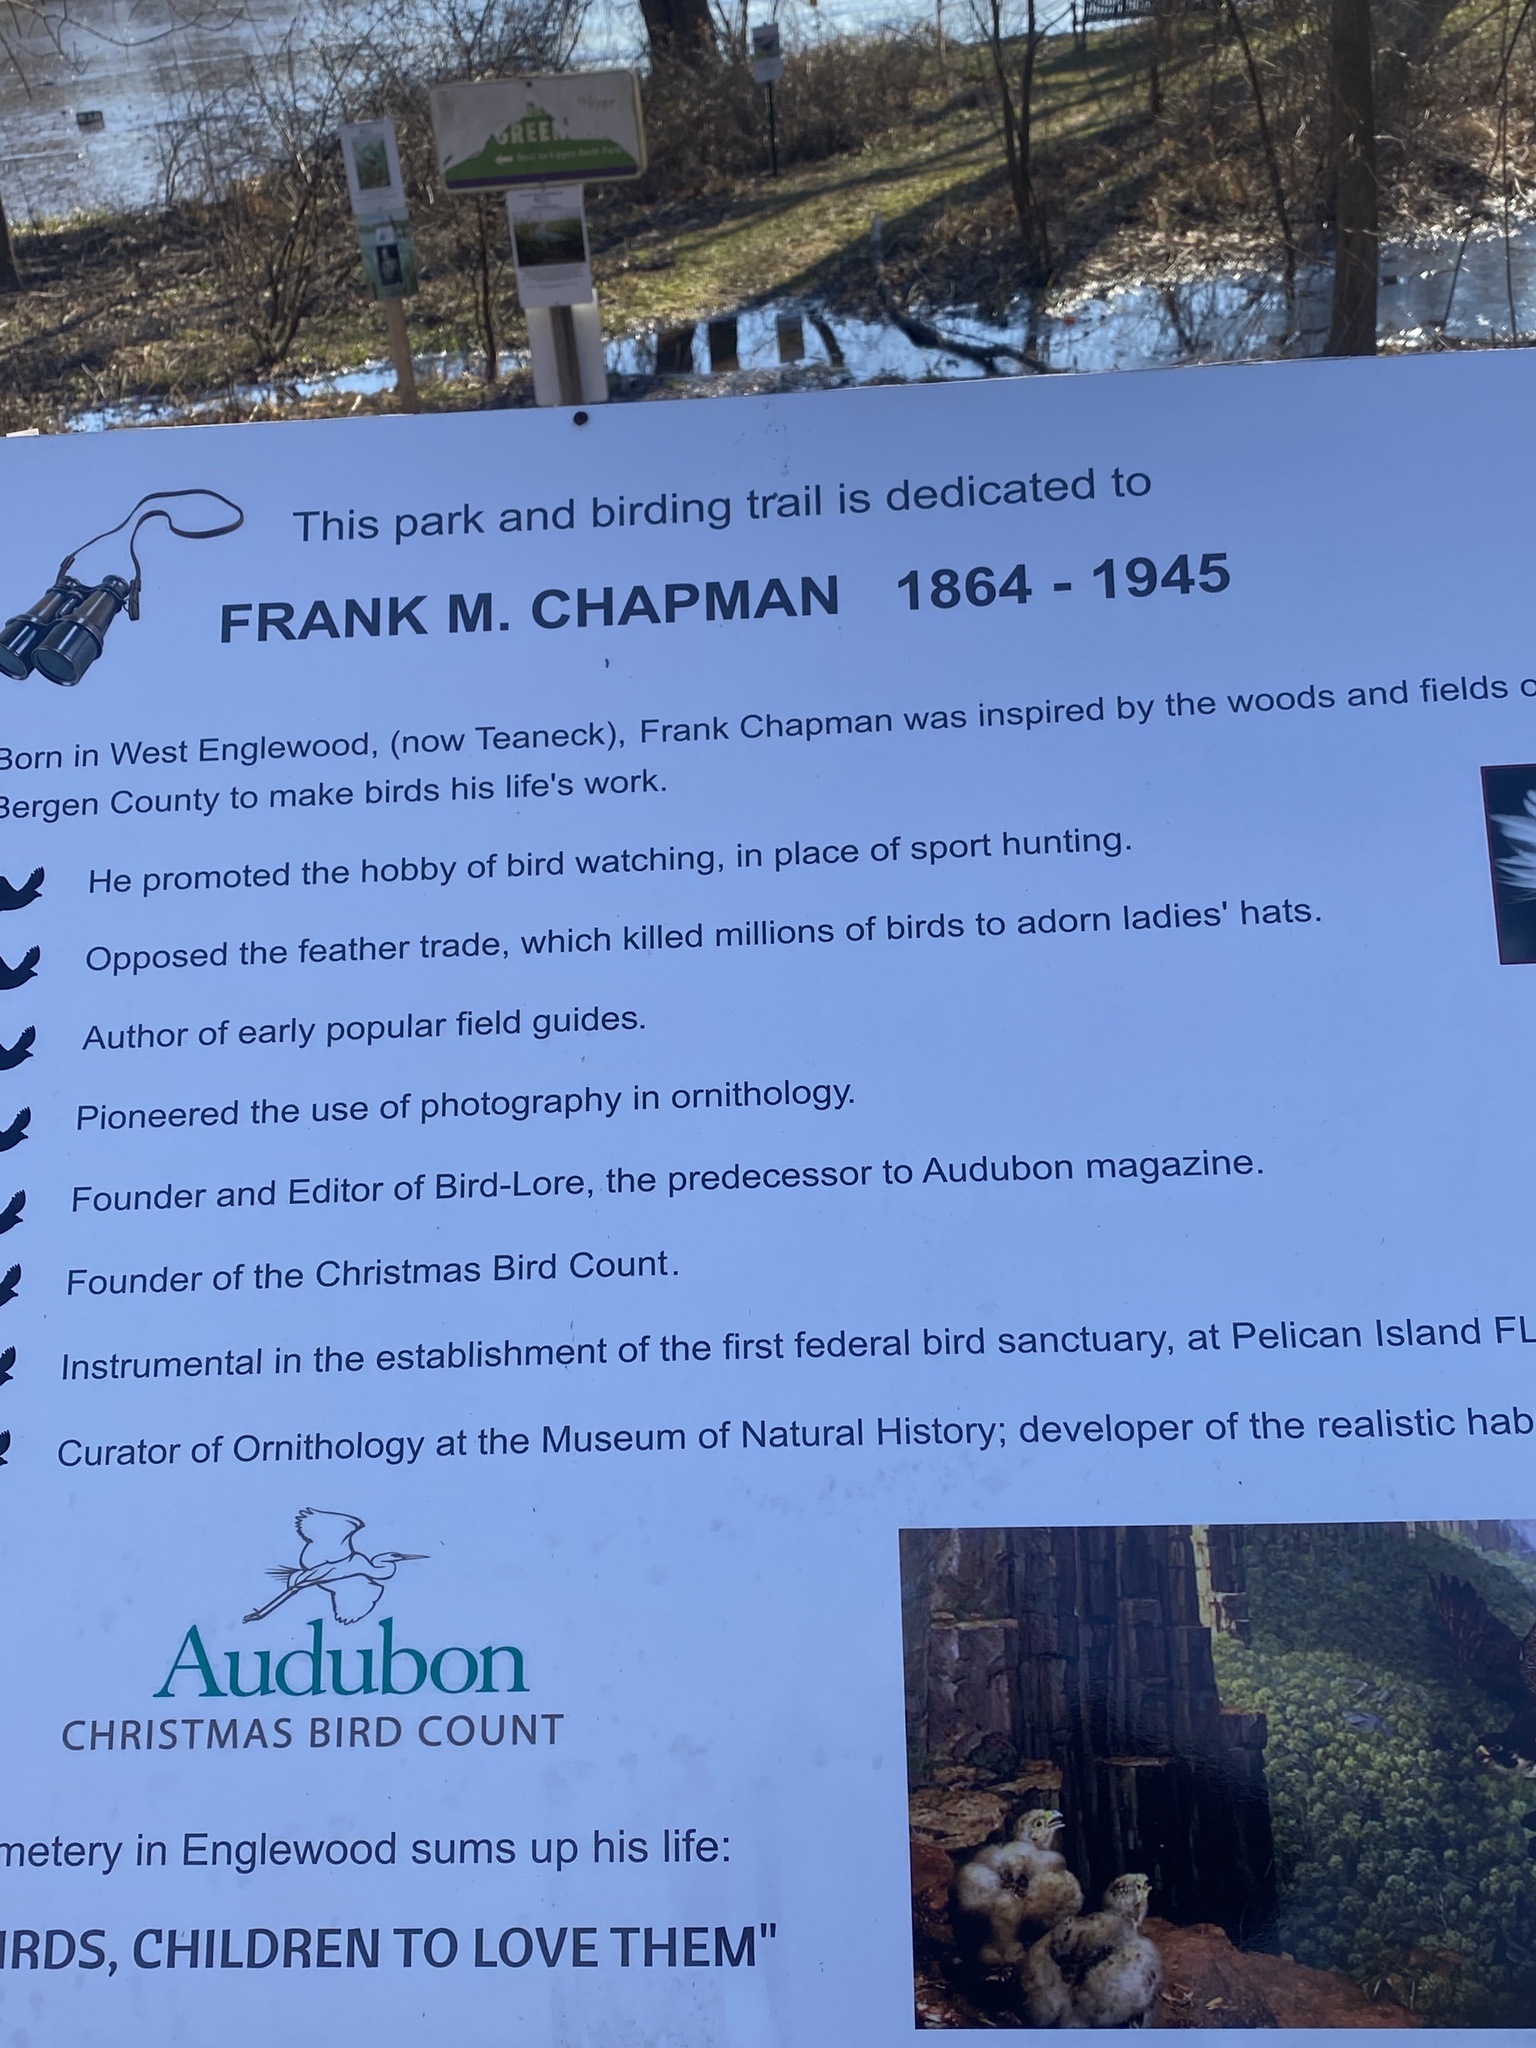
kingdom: Plantae
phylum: Tracheophyta
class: Magnoliopsida
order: Brassicales
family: Brassicaceae
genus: Cardamine
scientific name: Cardamine hirsuta
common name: Hairy bittercress
